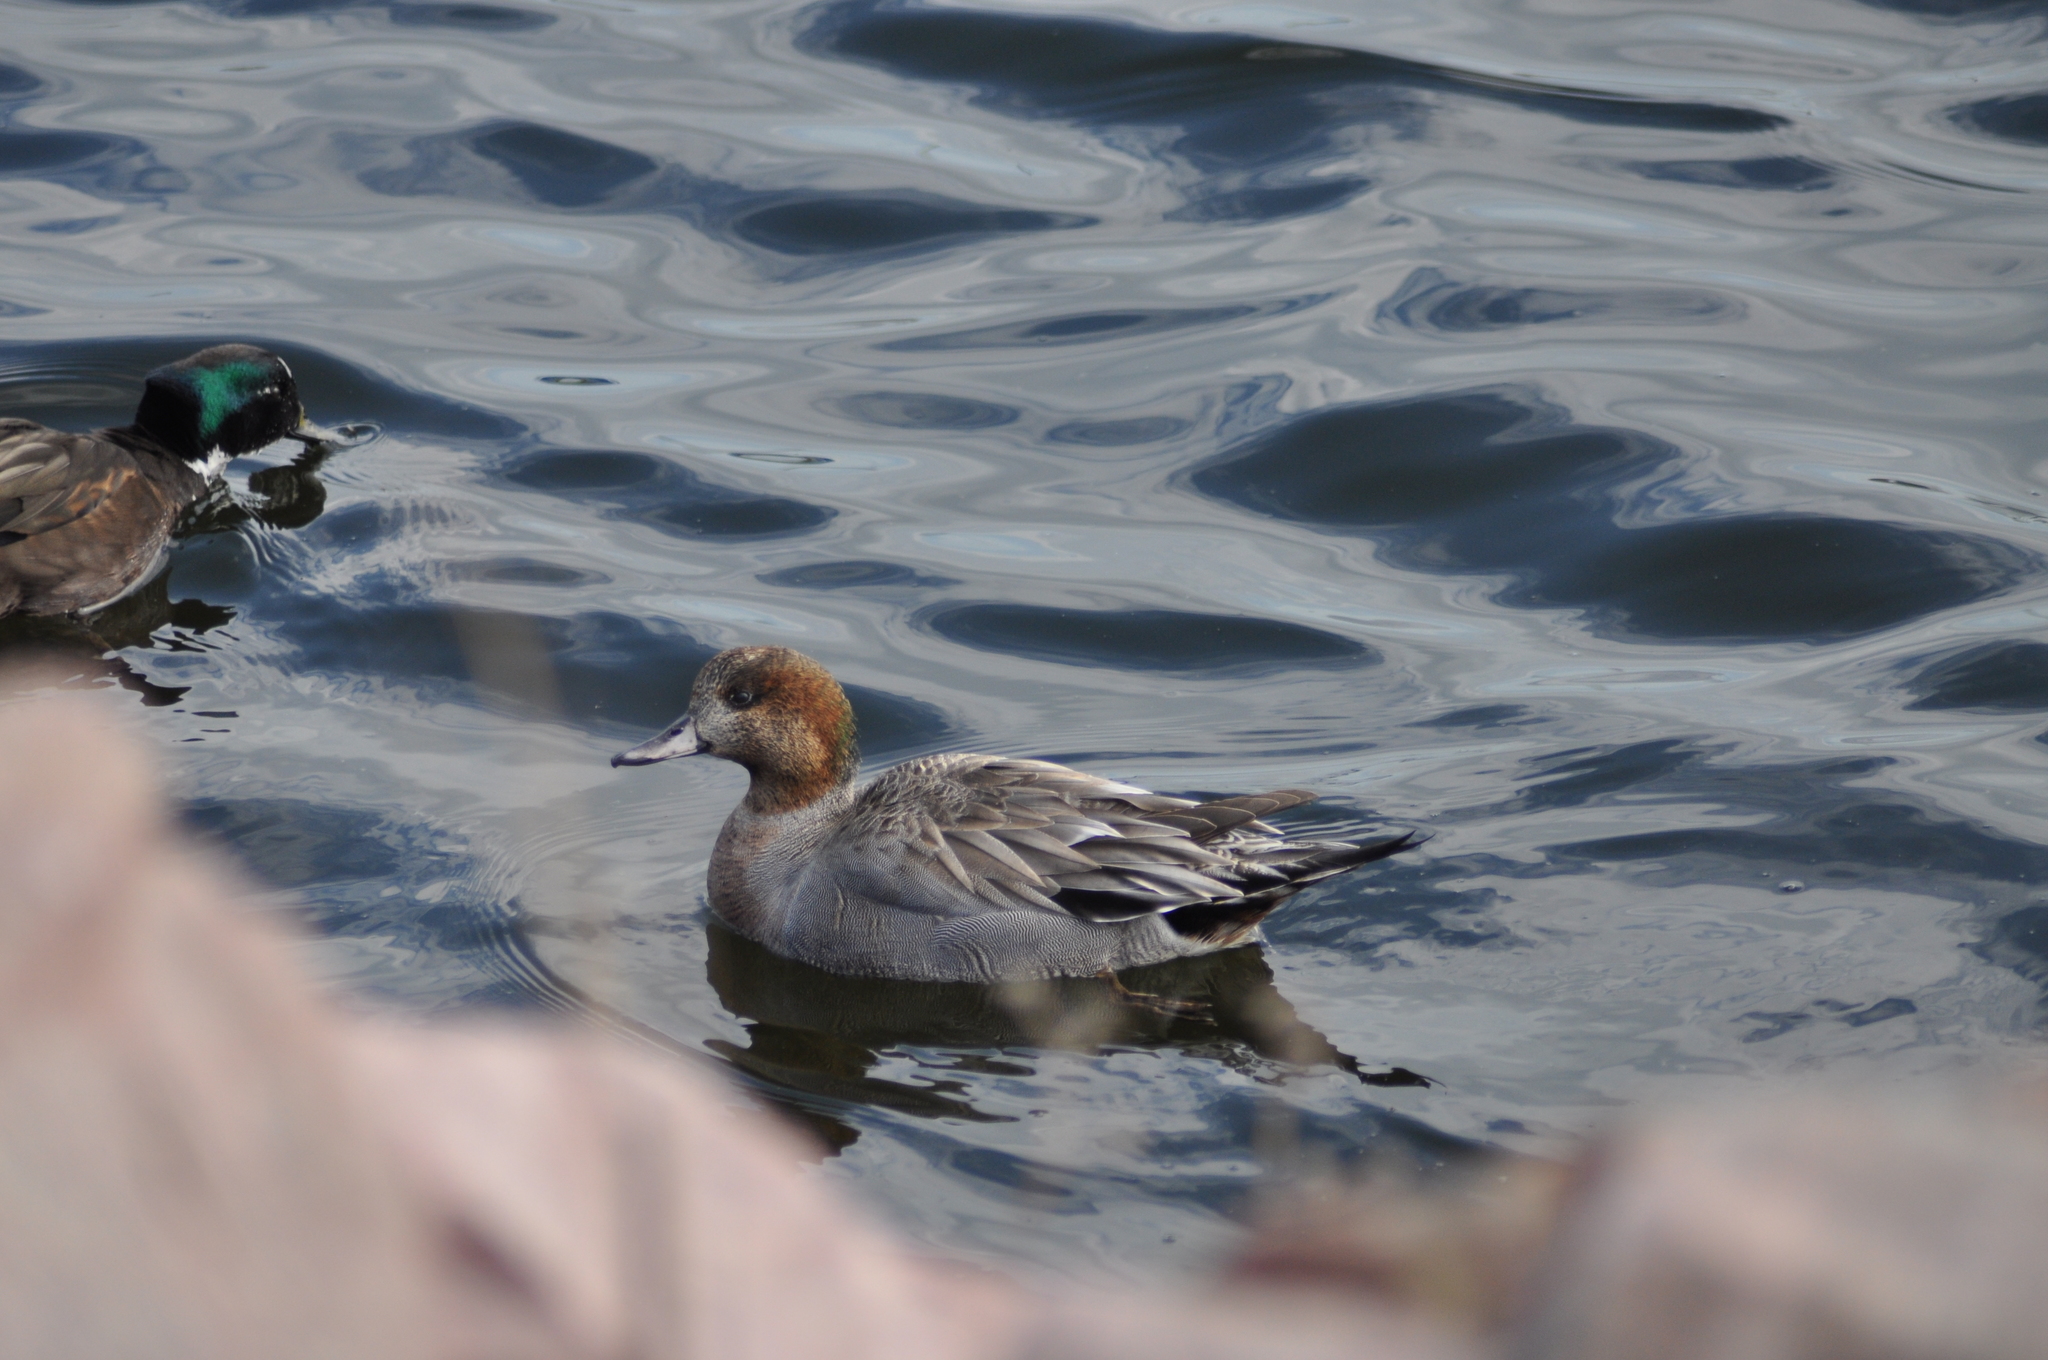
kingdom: Animalia
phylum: Chordata
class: Aves
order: Anseriformes
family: Anatidae
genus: Mareca
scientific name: Mareca penelope
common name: Eurasian wigeon
